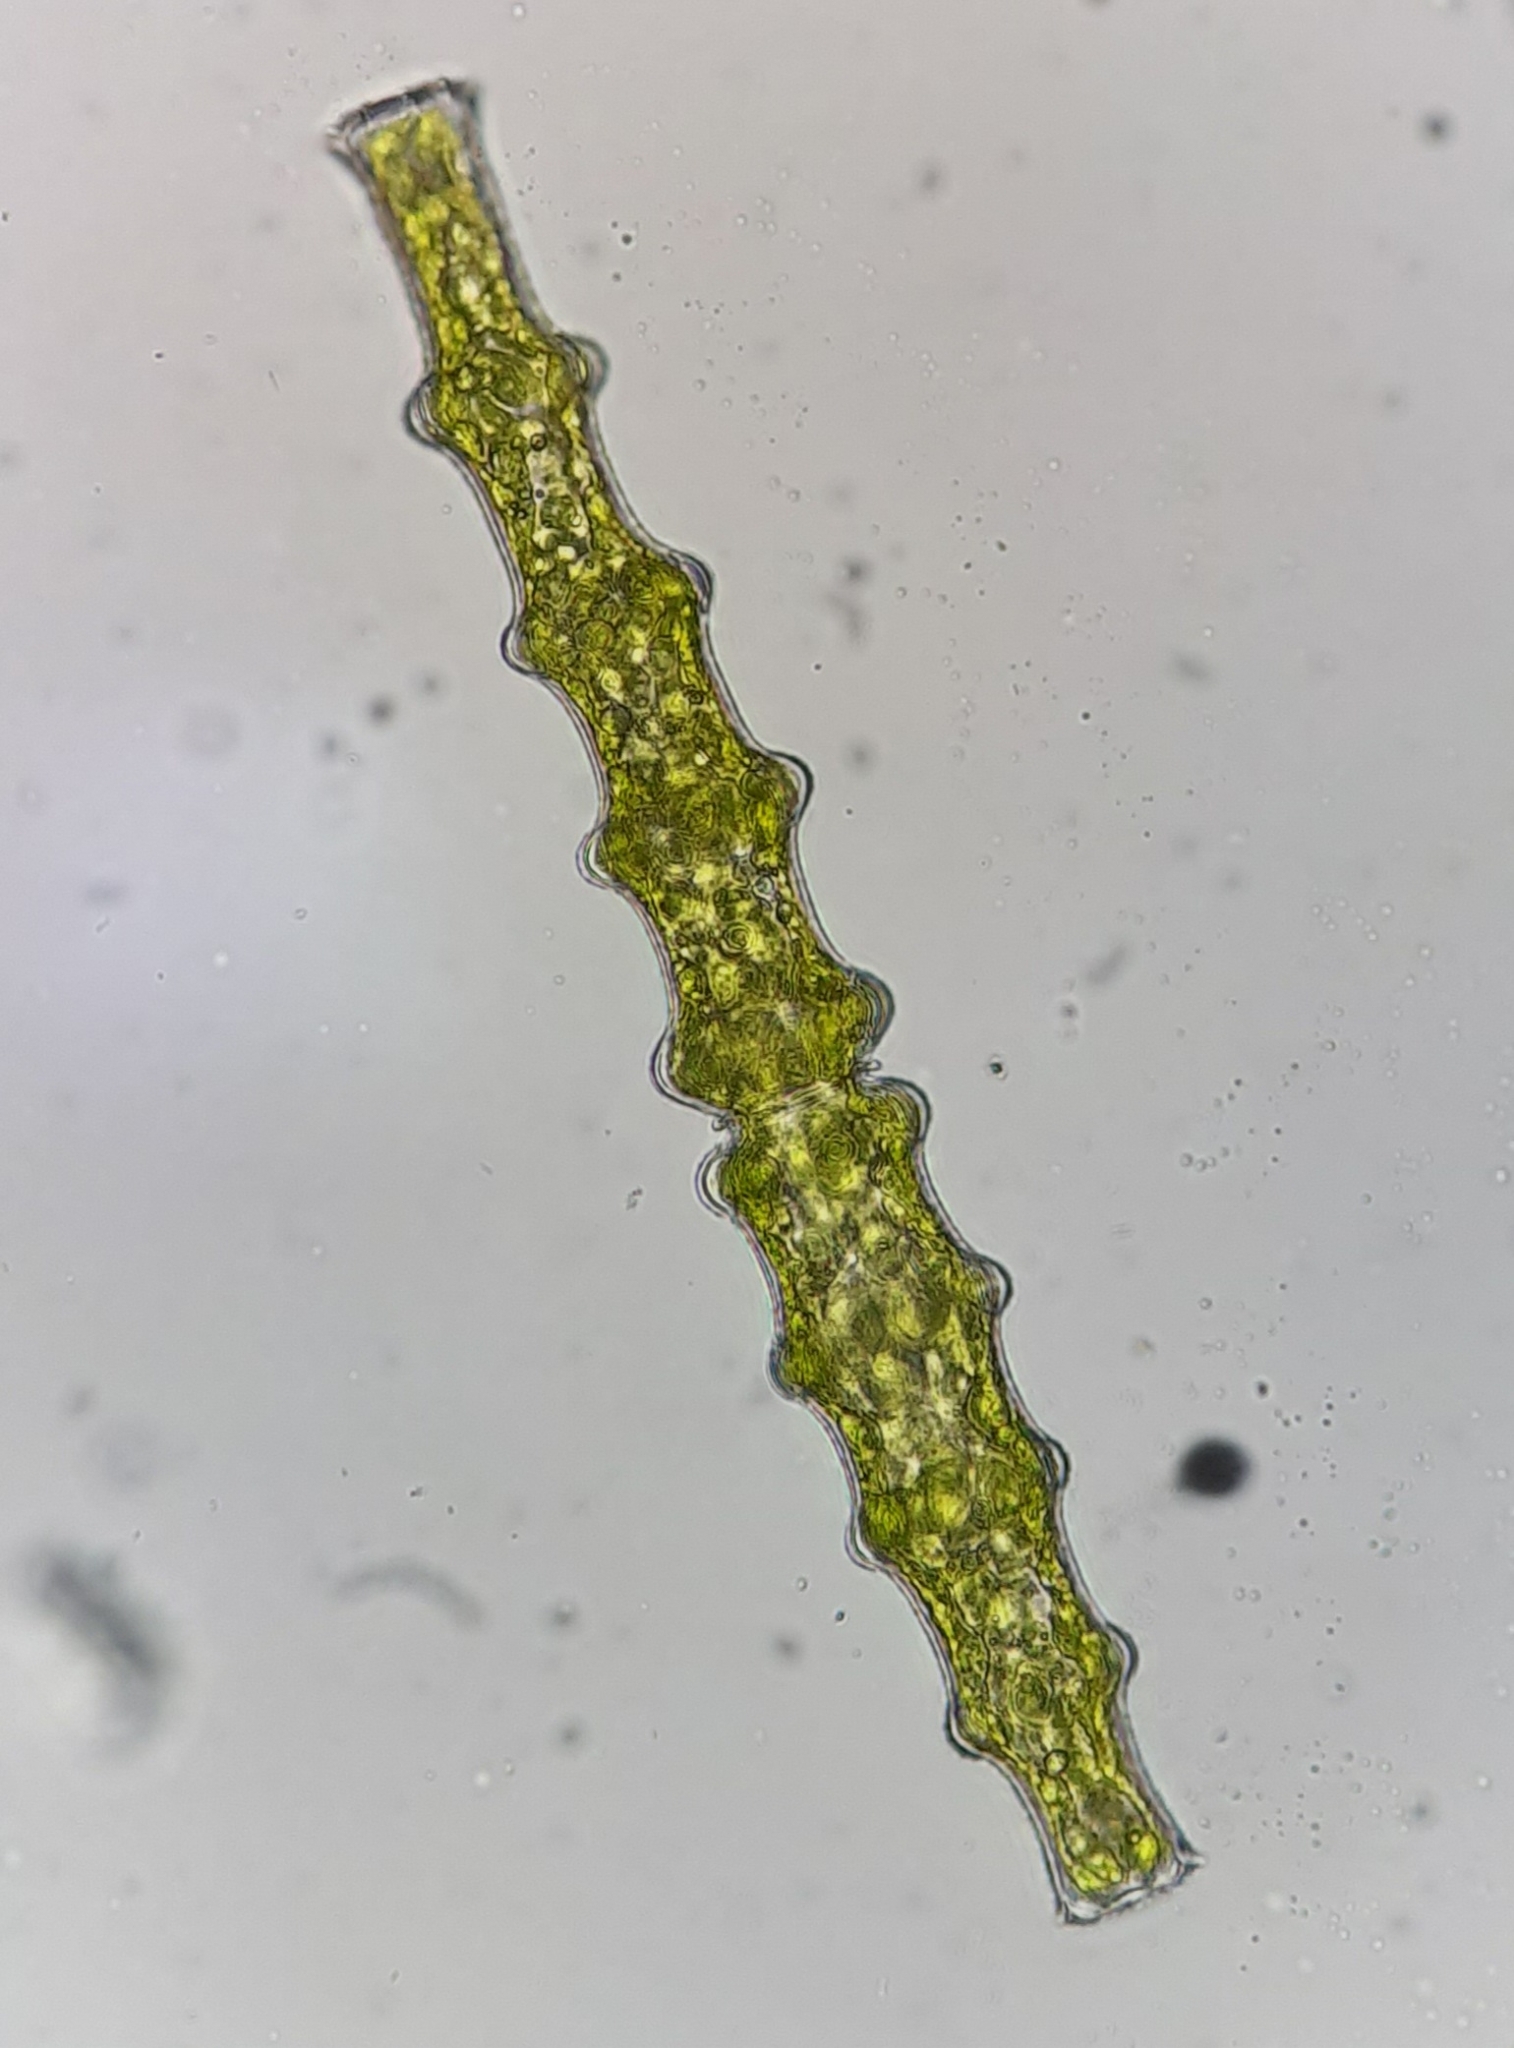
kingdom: Plantae
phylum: Charophyta
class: Conjugatophyceae
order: Desmidiales
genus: Pleurotaenium
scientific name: Pleurotaenium nodosum
